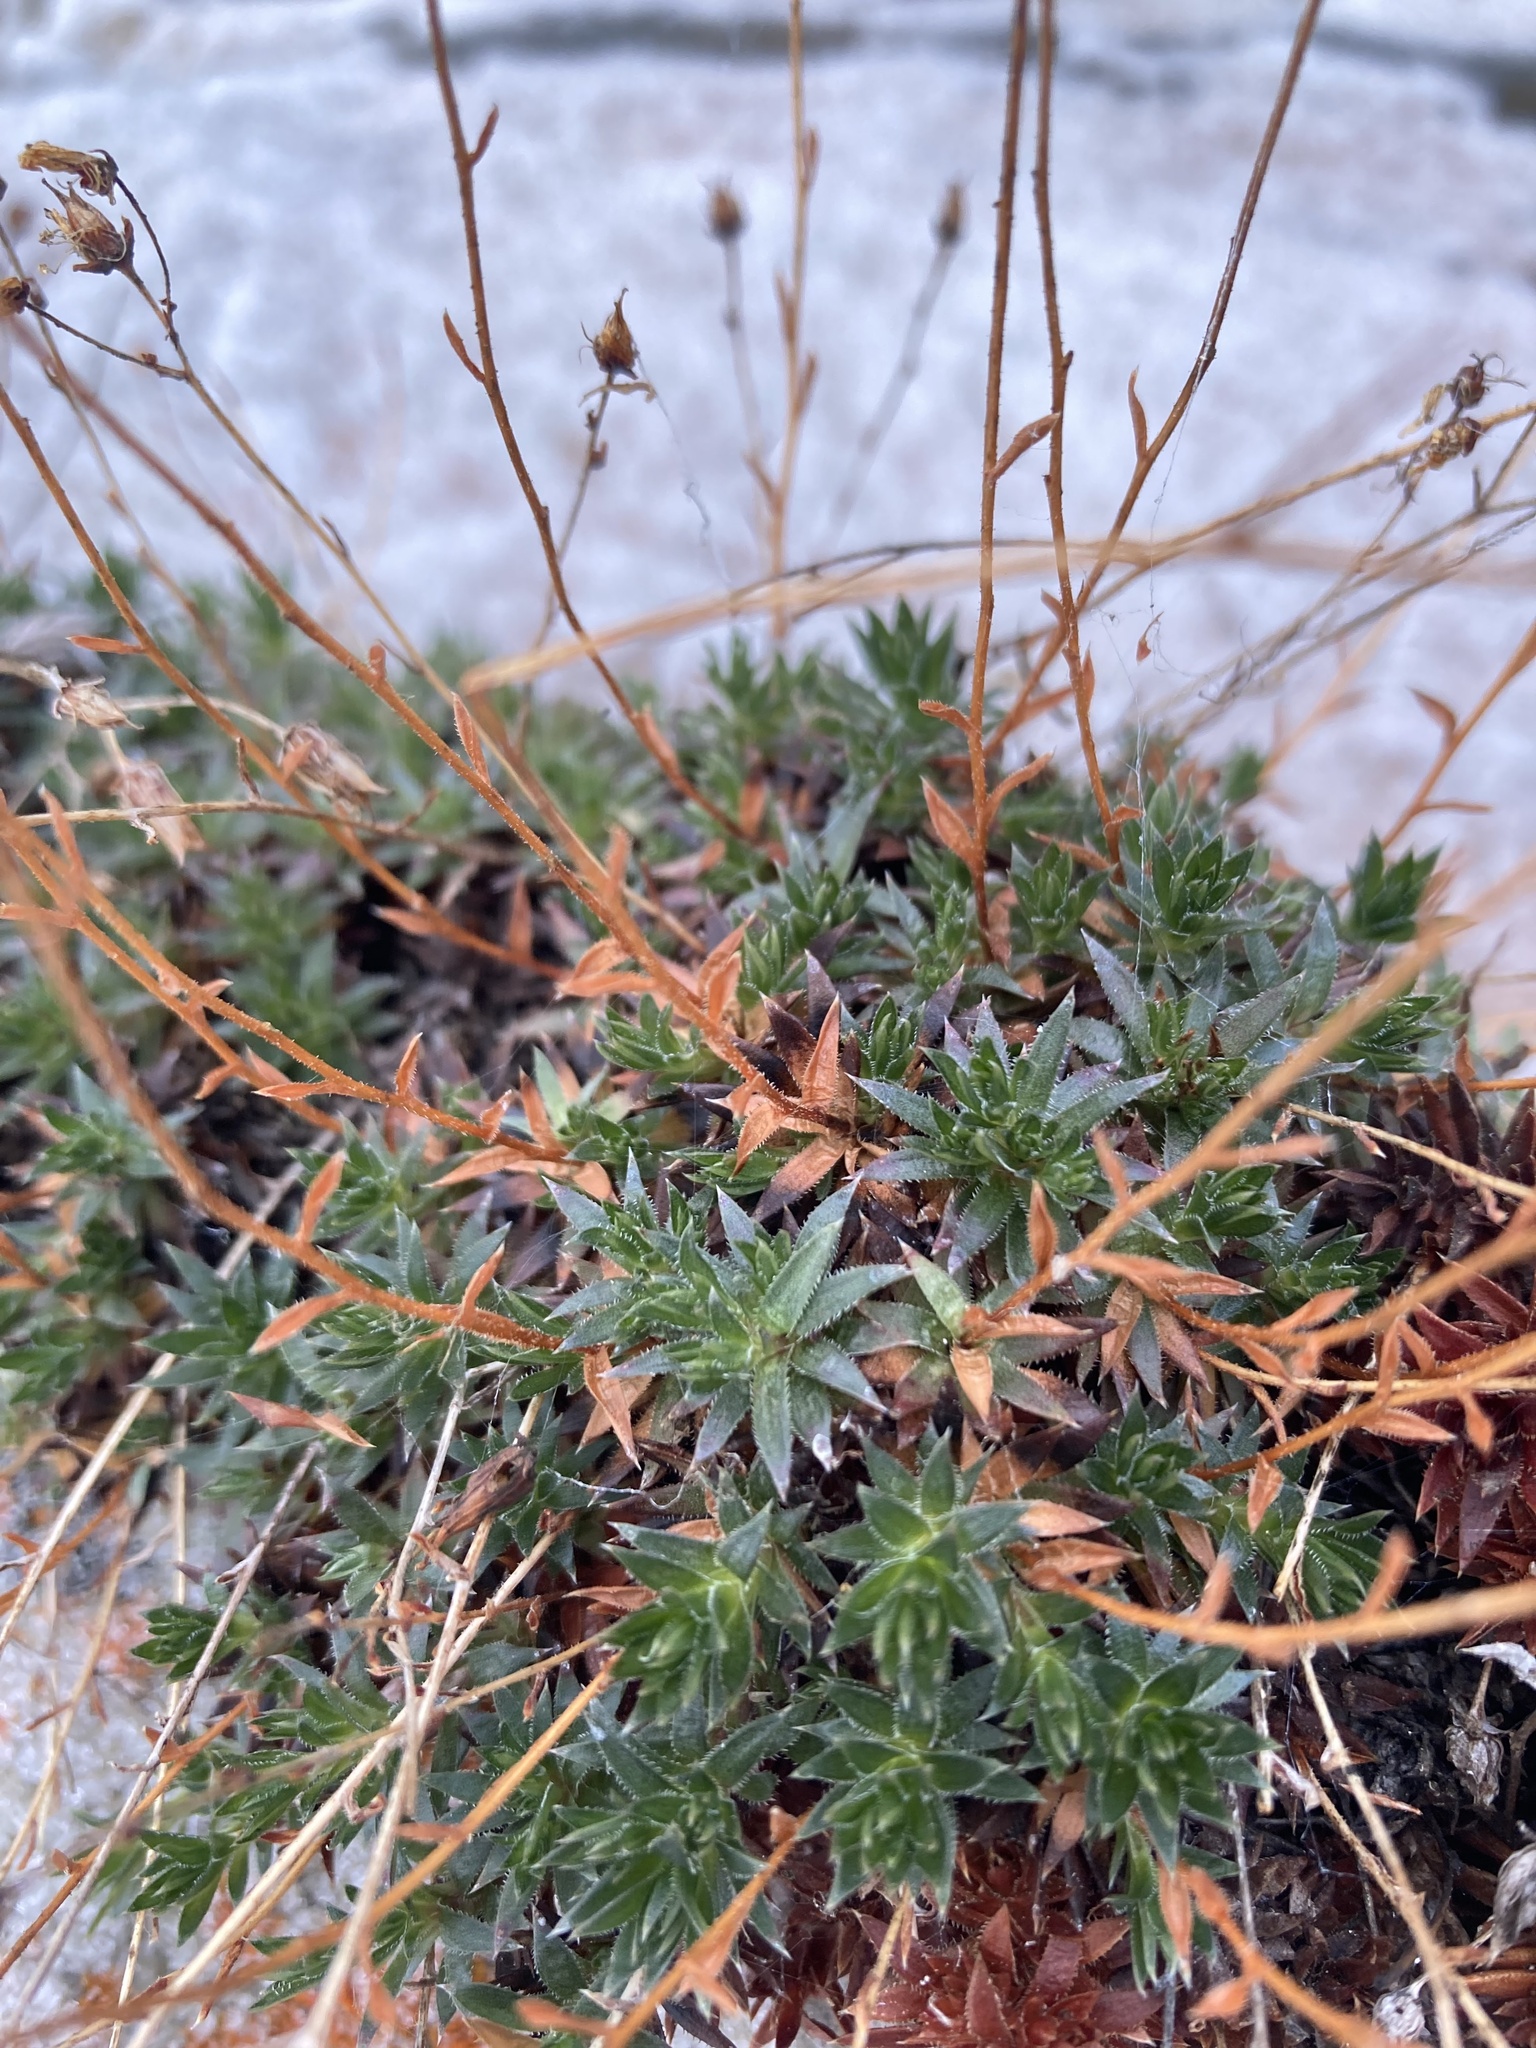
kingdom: Plantae
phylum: Tracheophyta
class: Magnoliopsida
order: Saxifragales
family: Saxifragaceae
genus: Saxifraga
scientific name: Saxifraga bronchialis
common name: Matted saxifrage
